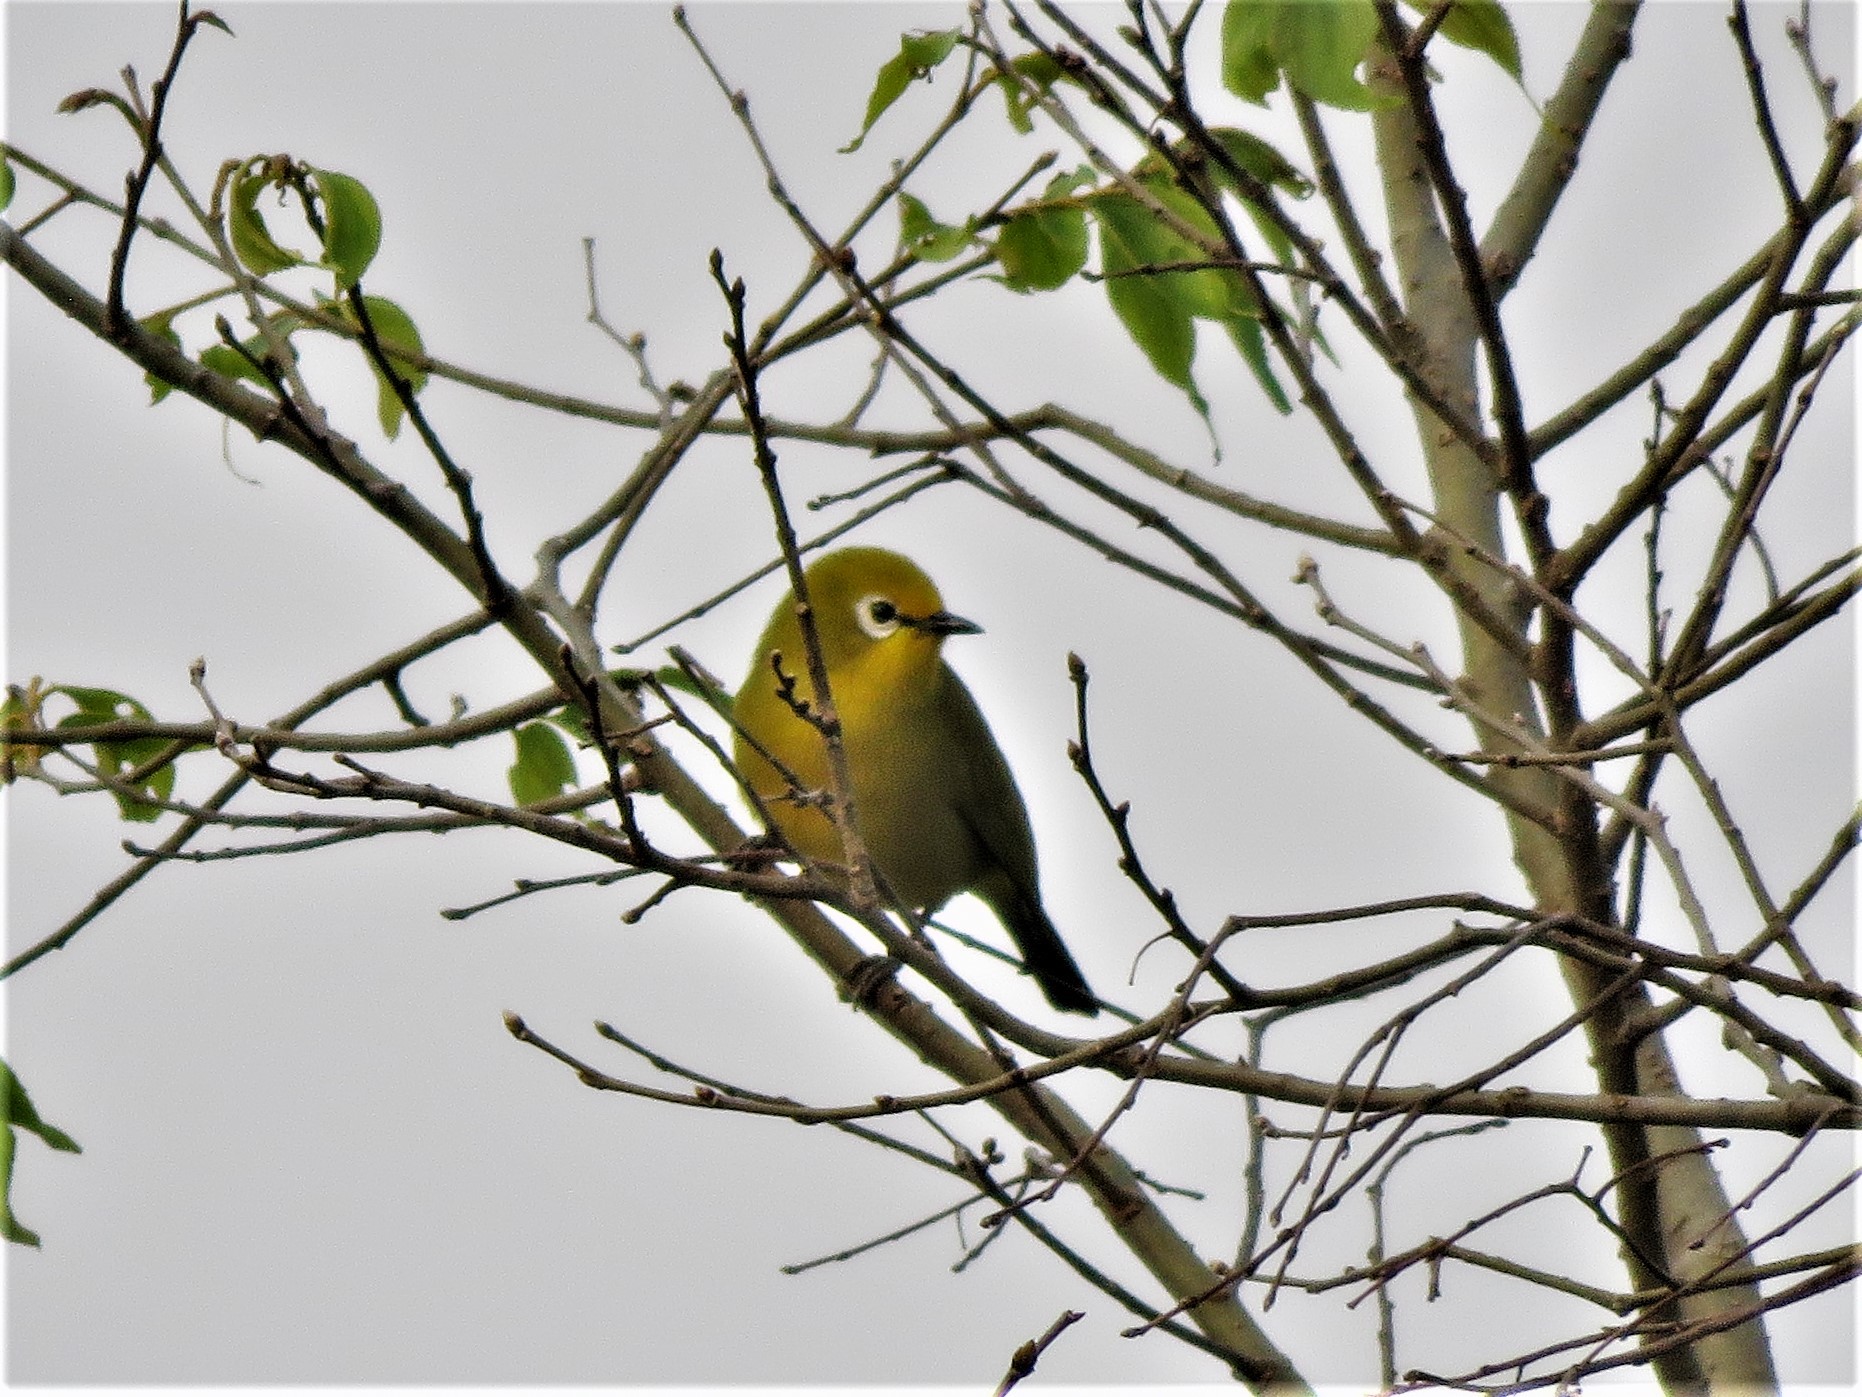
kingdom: Animalia
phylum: Chordata
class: Aves
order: Passeriformes
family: Zosteropidae
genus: Zosterops
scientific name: Zosterops stuhlmanni
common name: Green white-eye
